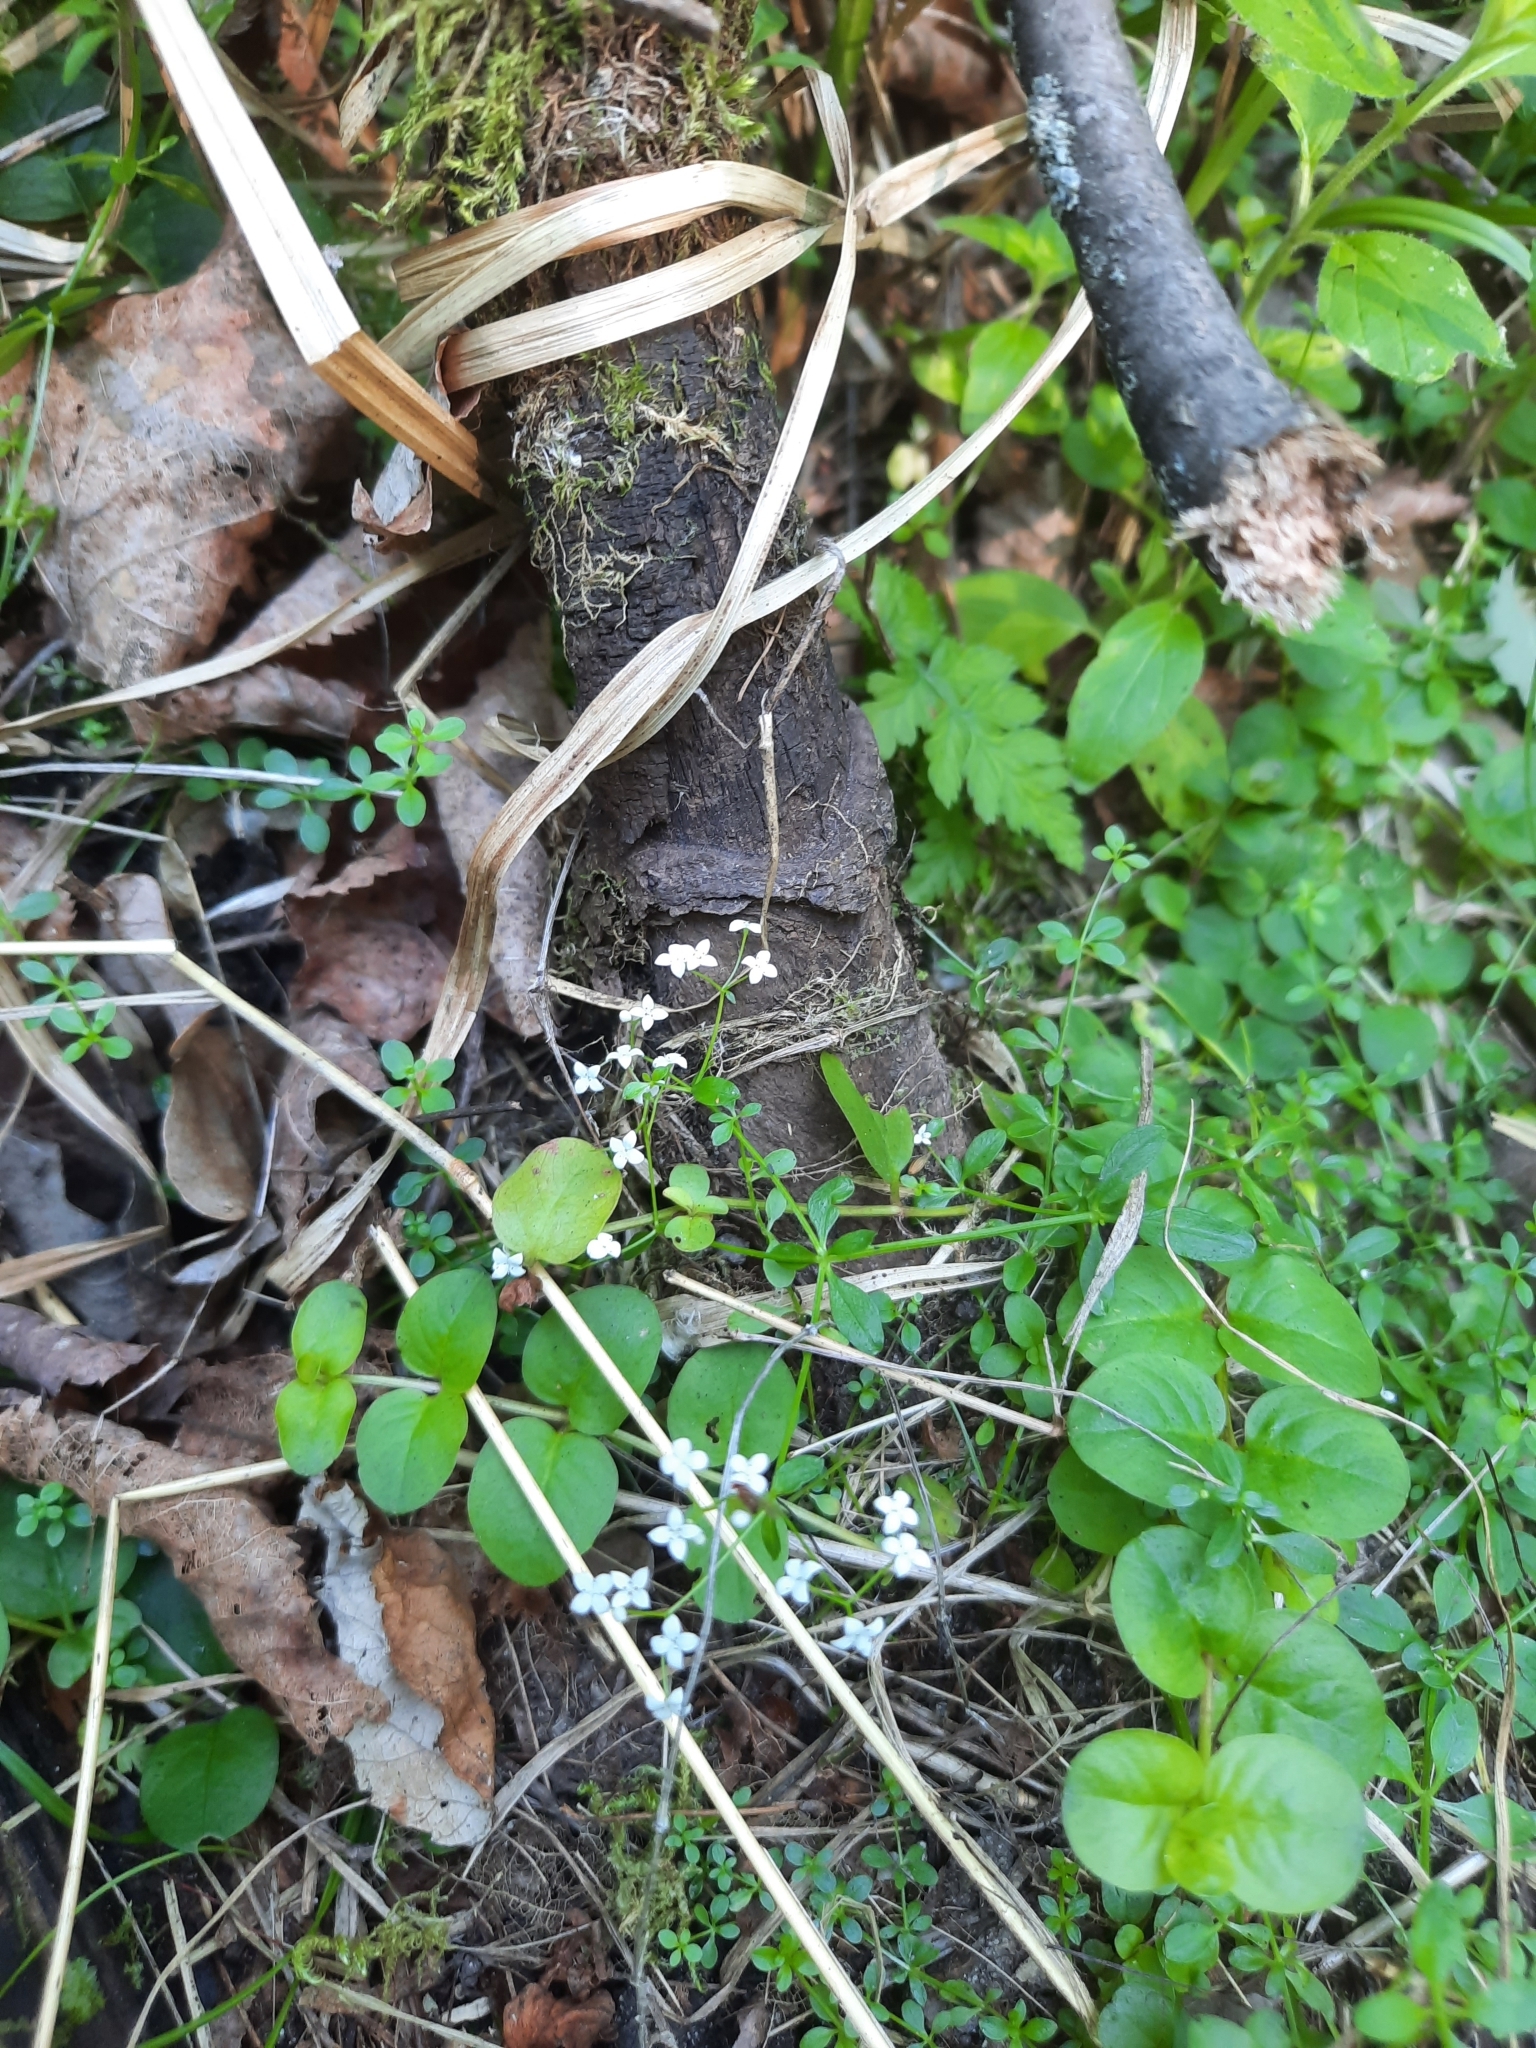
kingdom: Plantae
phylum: Tracheophyta
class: Magnoliopsida
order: Gentianales
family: Rubiaceae
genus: Galium
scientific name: Galium palustre
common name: Common marsh-bedstraw
